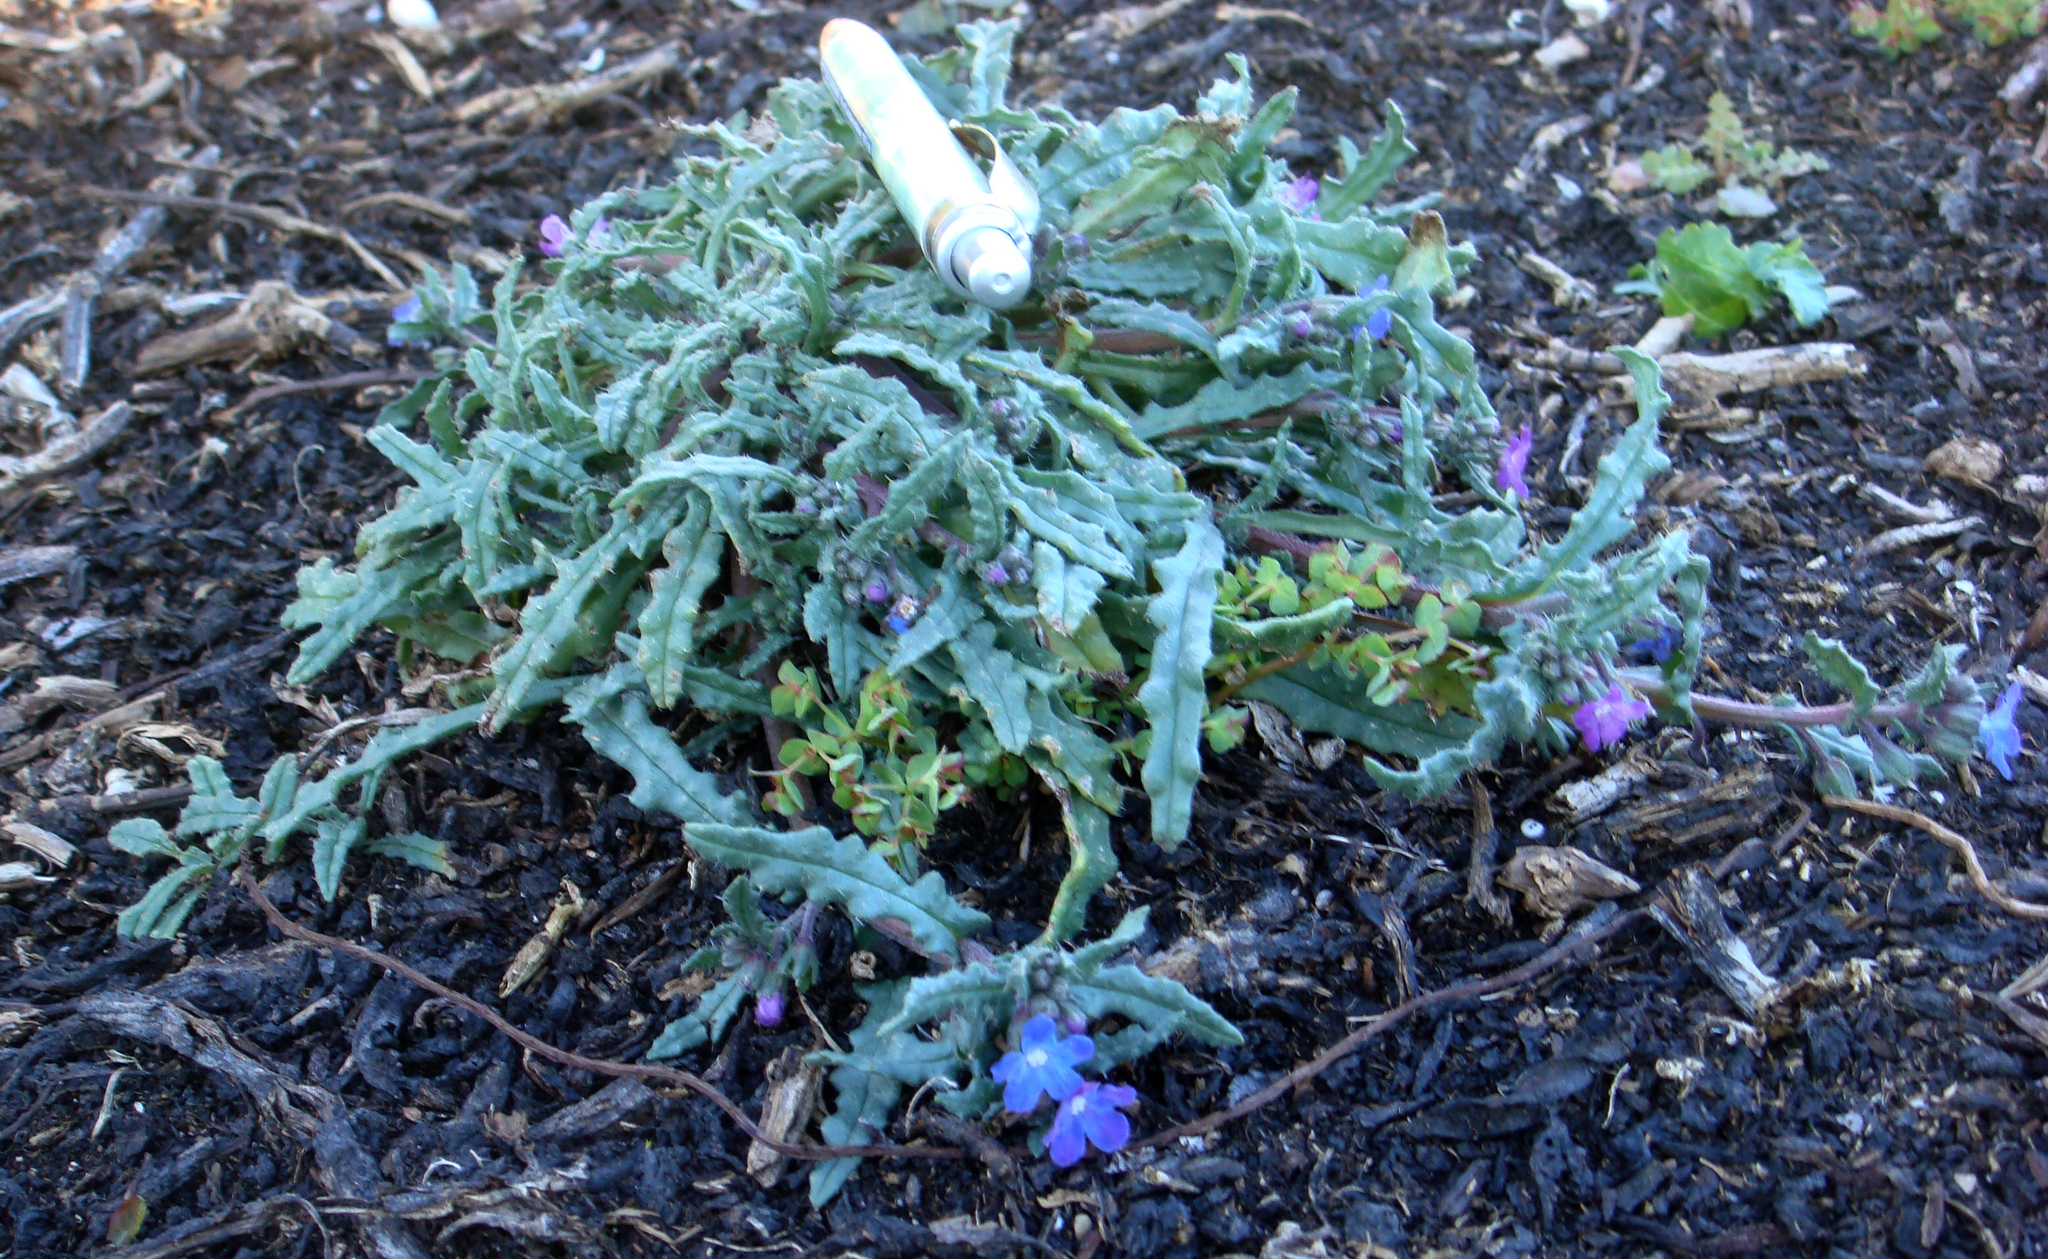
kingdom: Plantae
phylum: Tracheophyta
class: Magnoliopsida
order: Boraginales
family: Boraginaceae
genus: Anchusa
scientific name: Anchusa crispa
